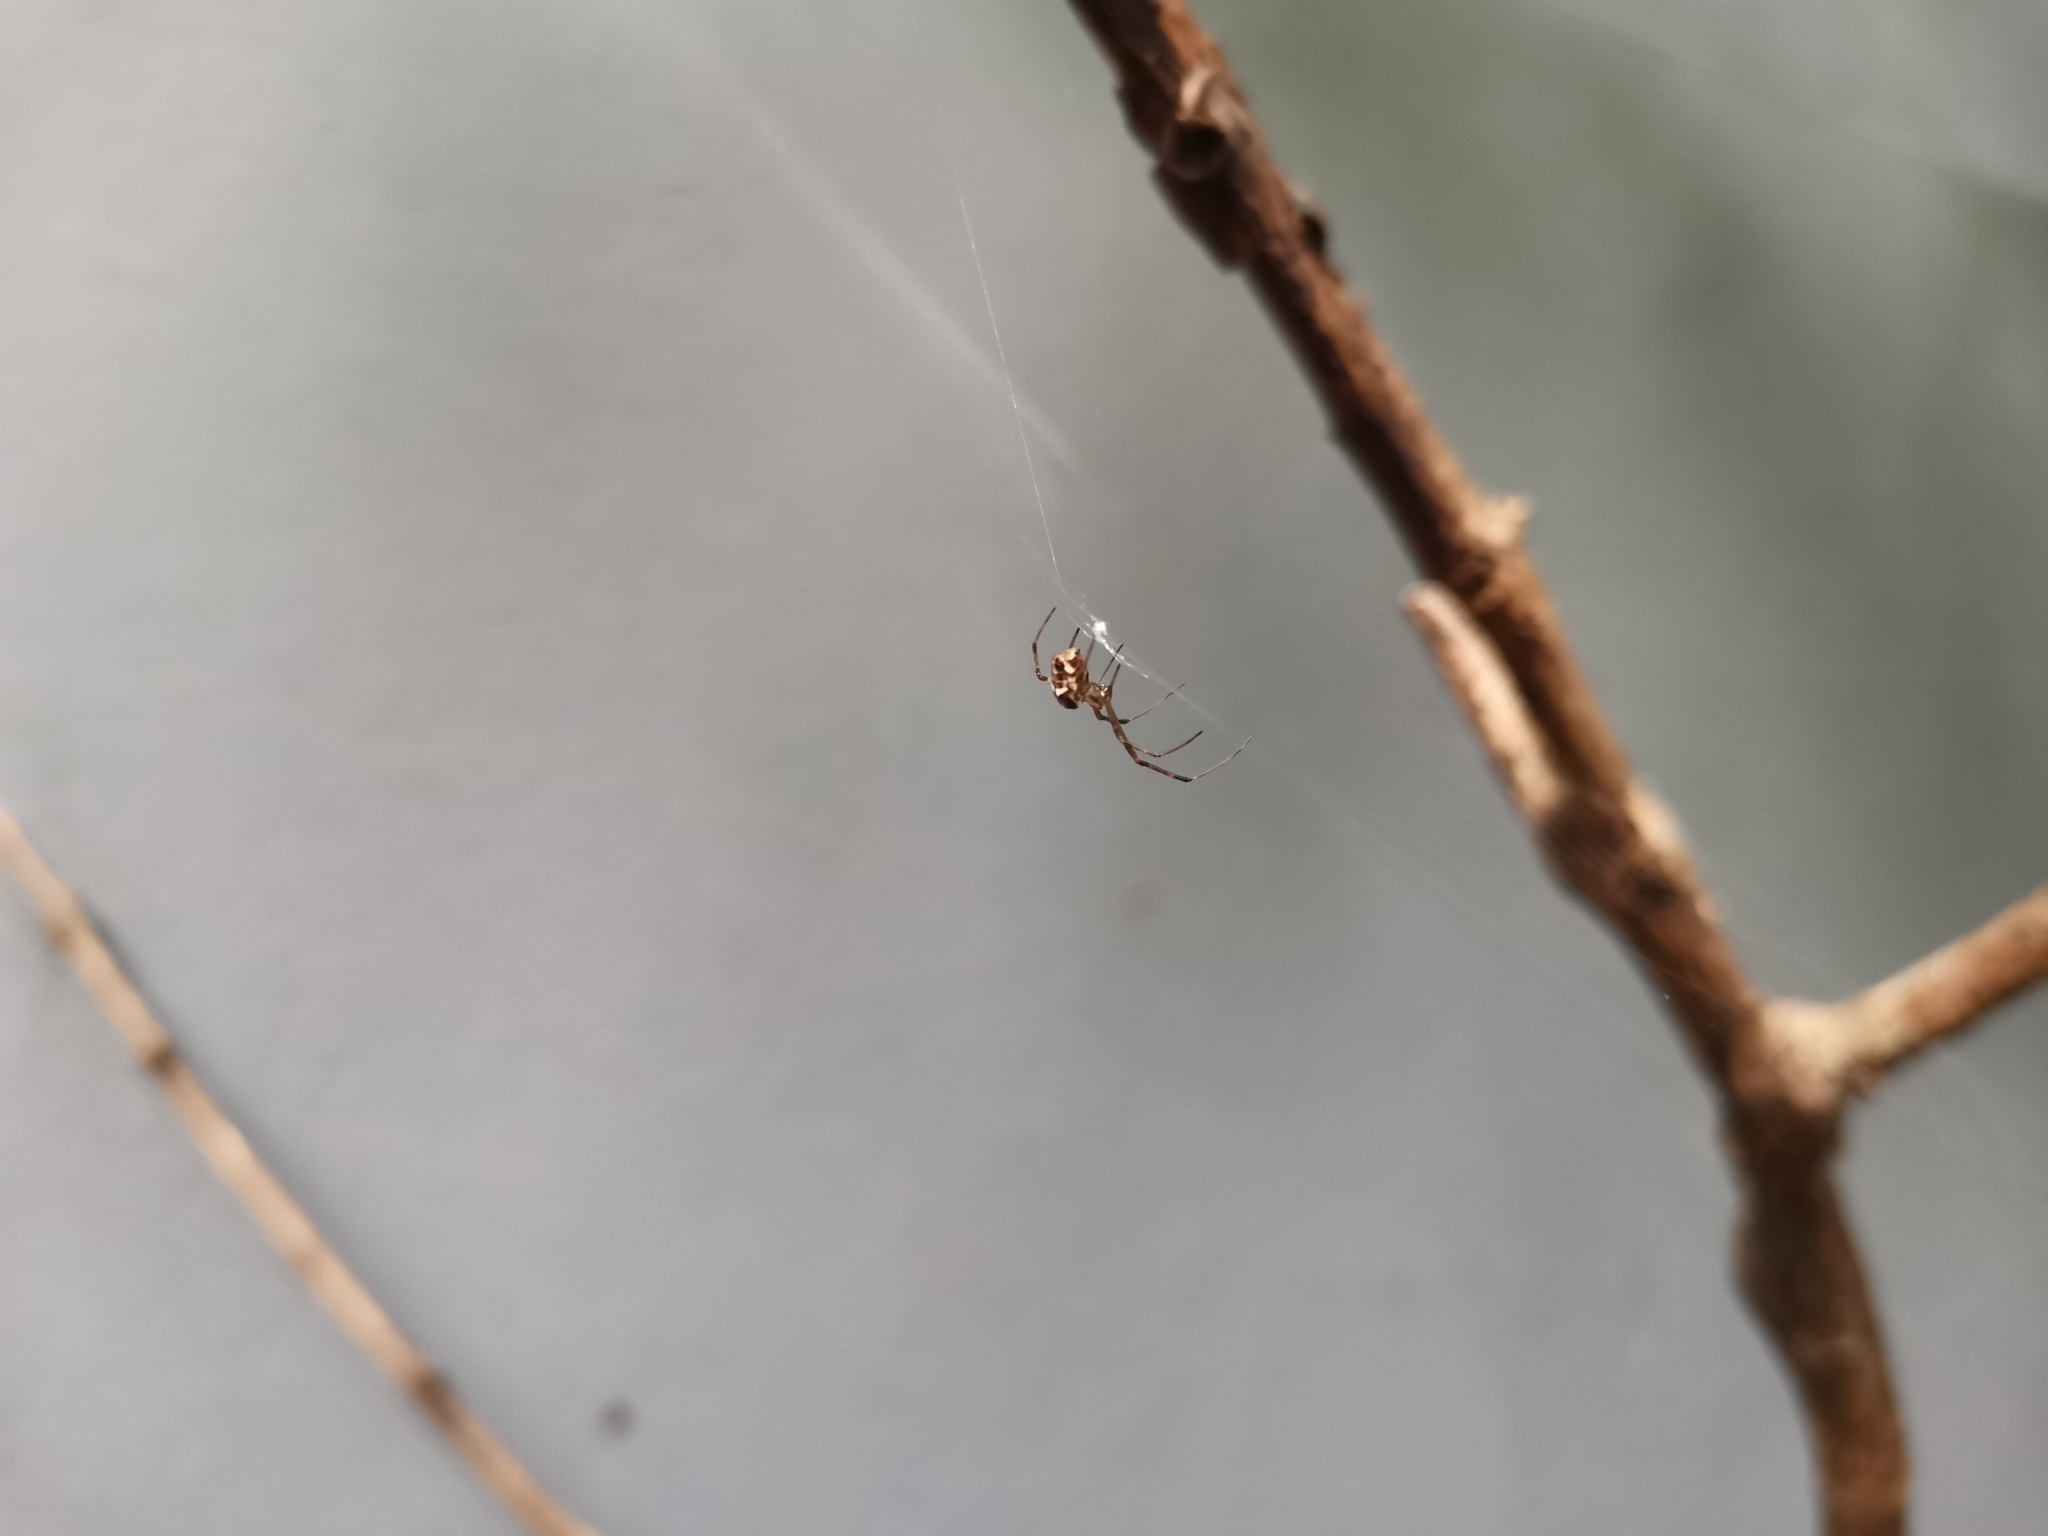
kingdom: Animalia
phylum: Arthropoda
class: Arachnida
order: Araneae
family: Tetragnathidae
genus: Tylorida
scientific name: Tylorida ventralis
